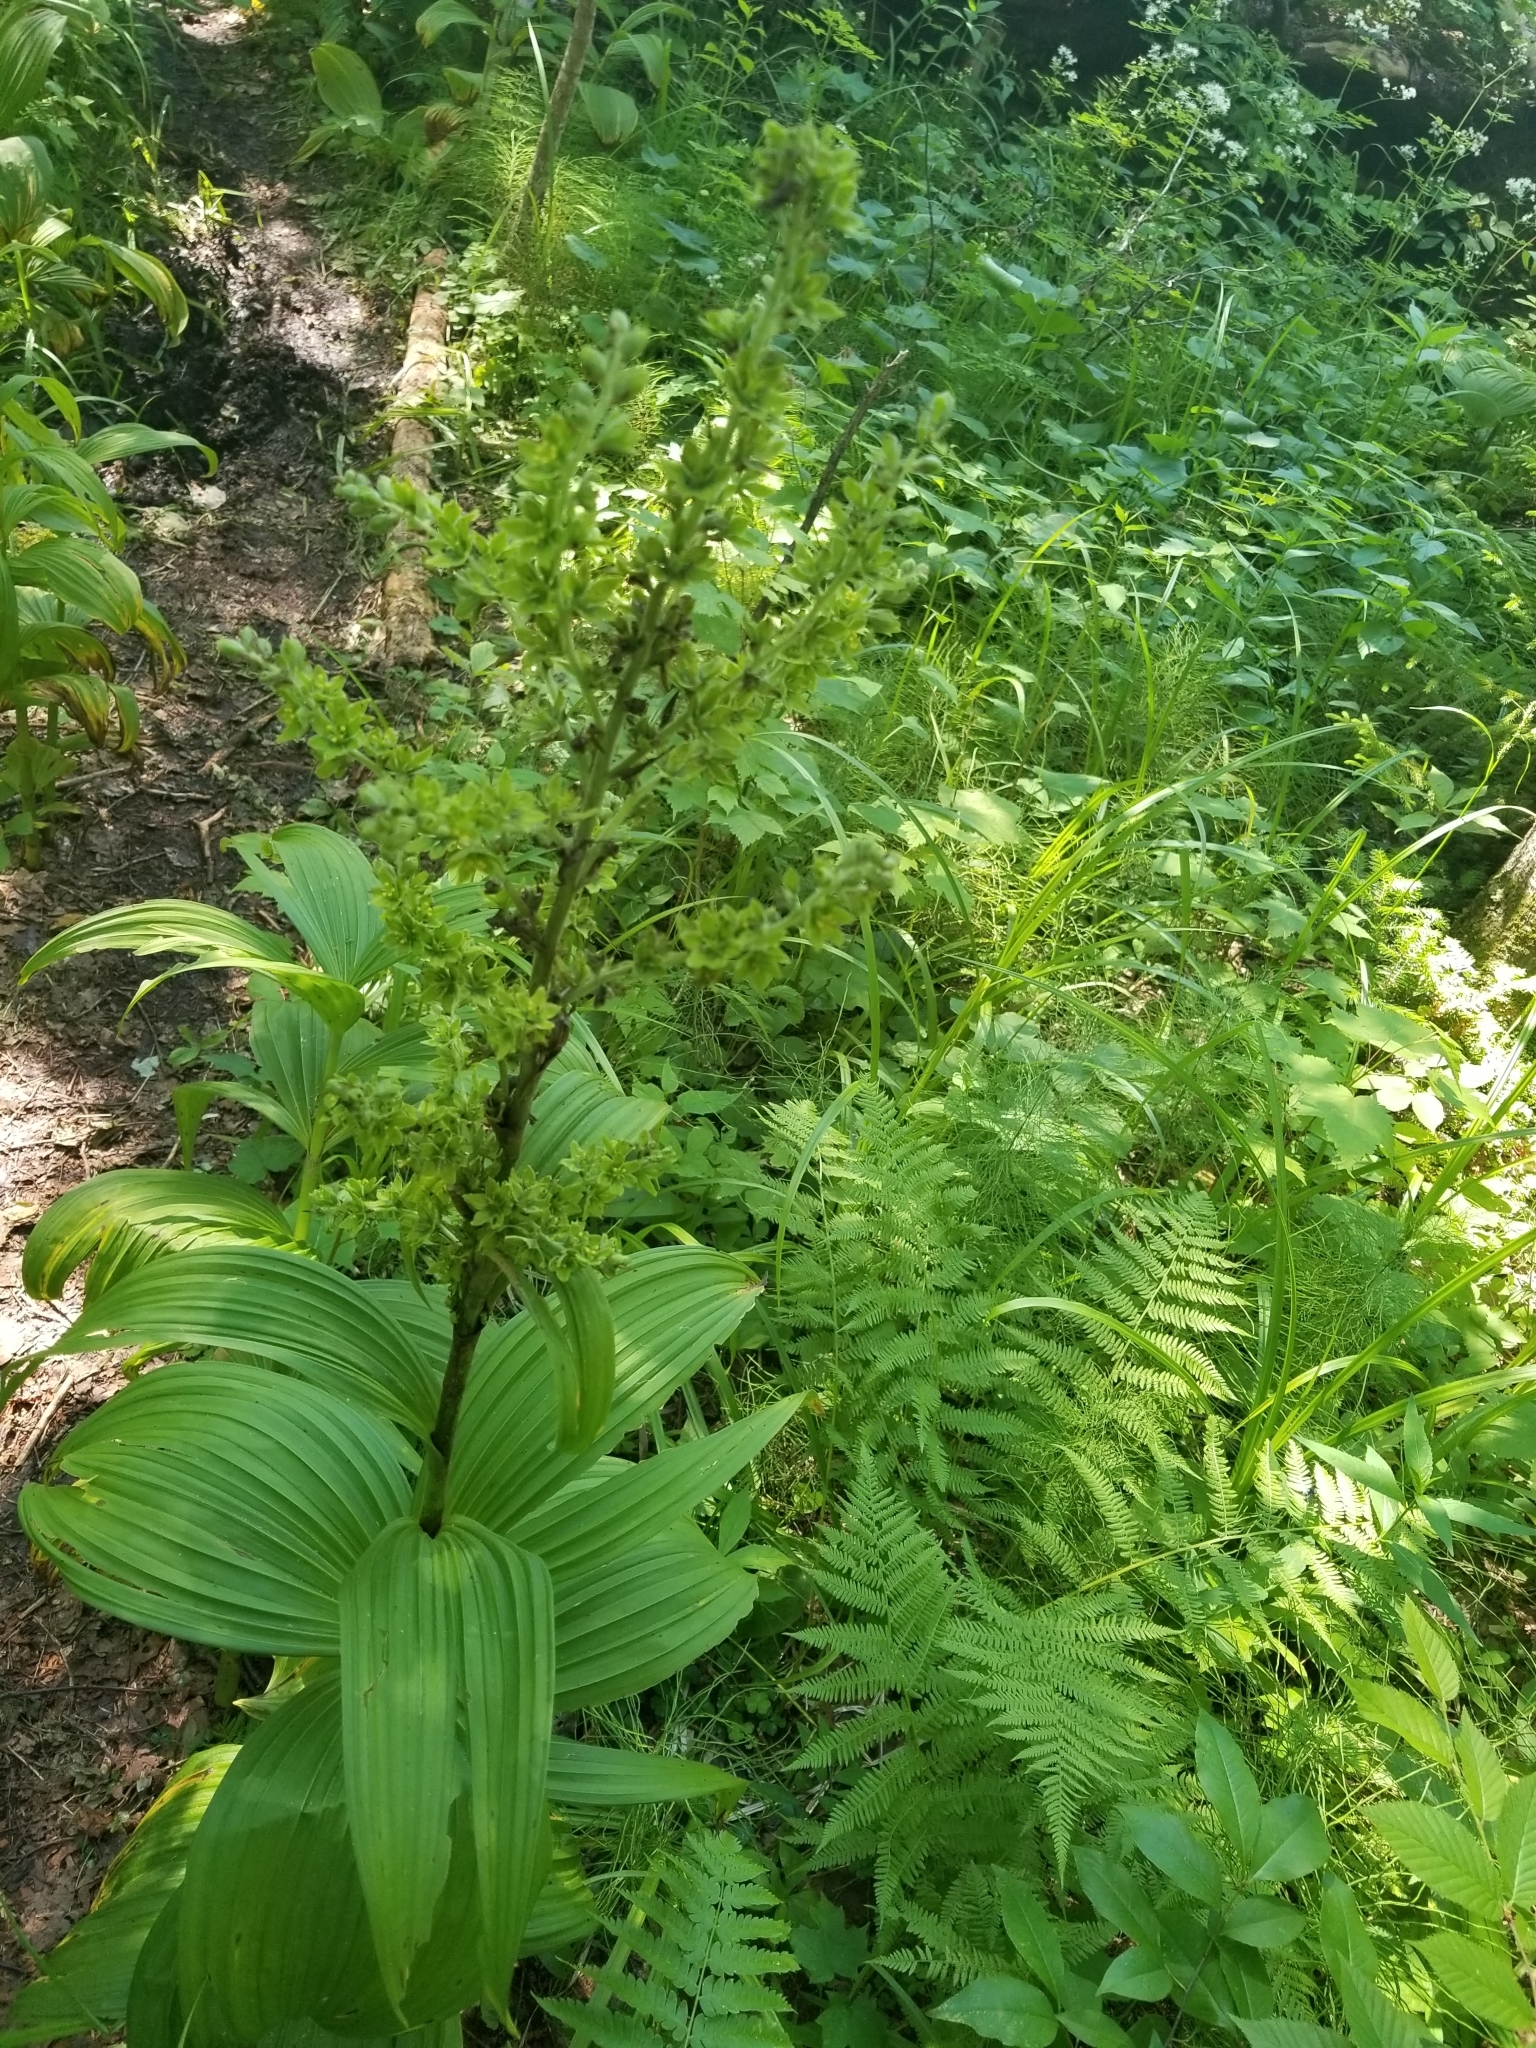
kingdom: Plantae
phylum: Tracheophyta
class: Liliopsida
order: Liliales
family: Melanthiaceae
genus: Veratrum
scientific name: Veratrum viride
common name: American false hellebore
